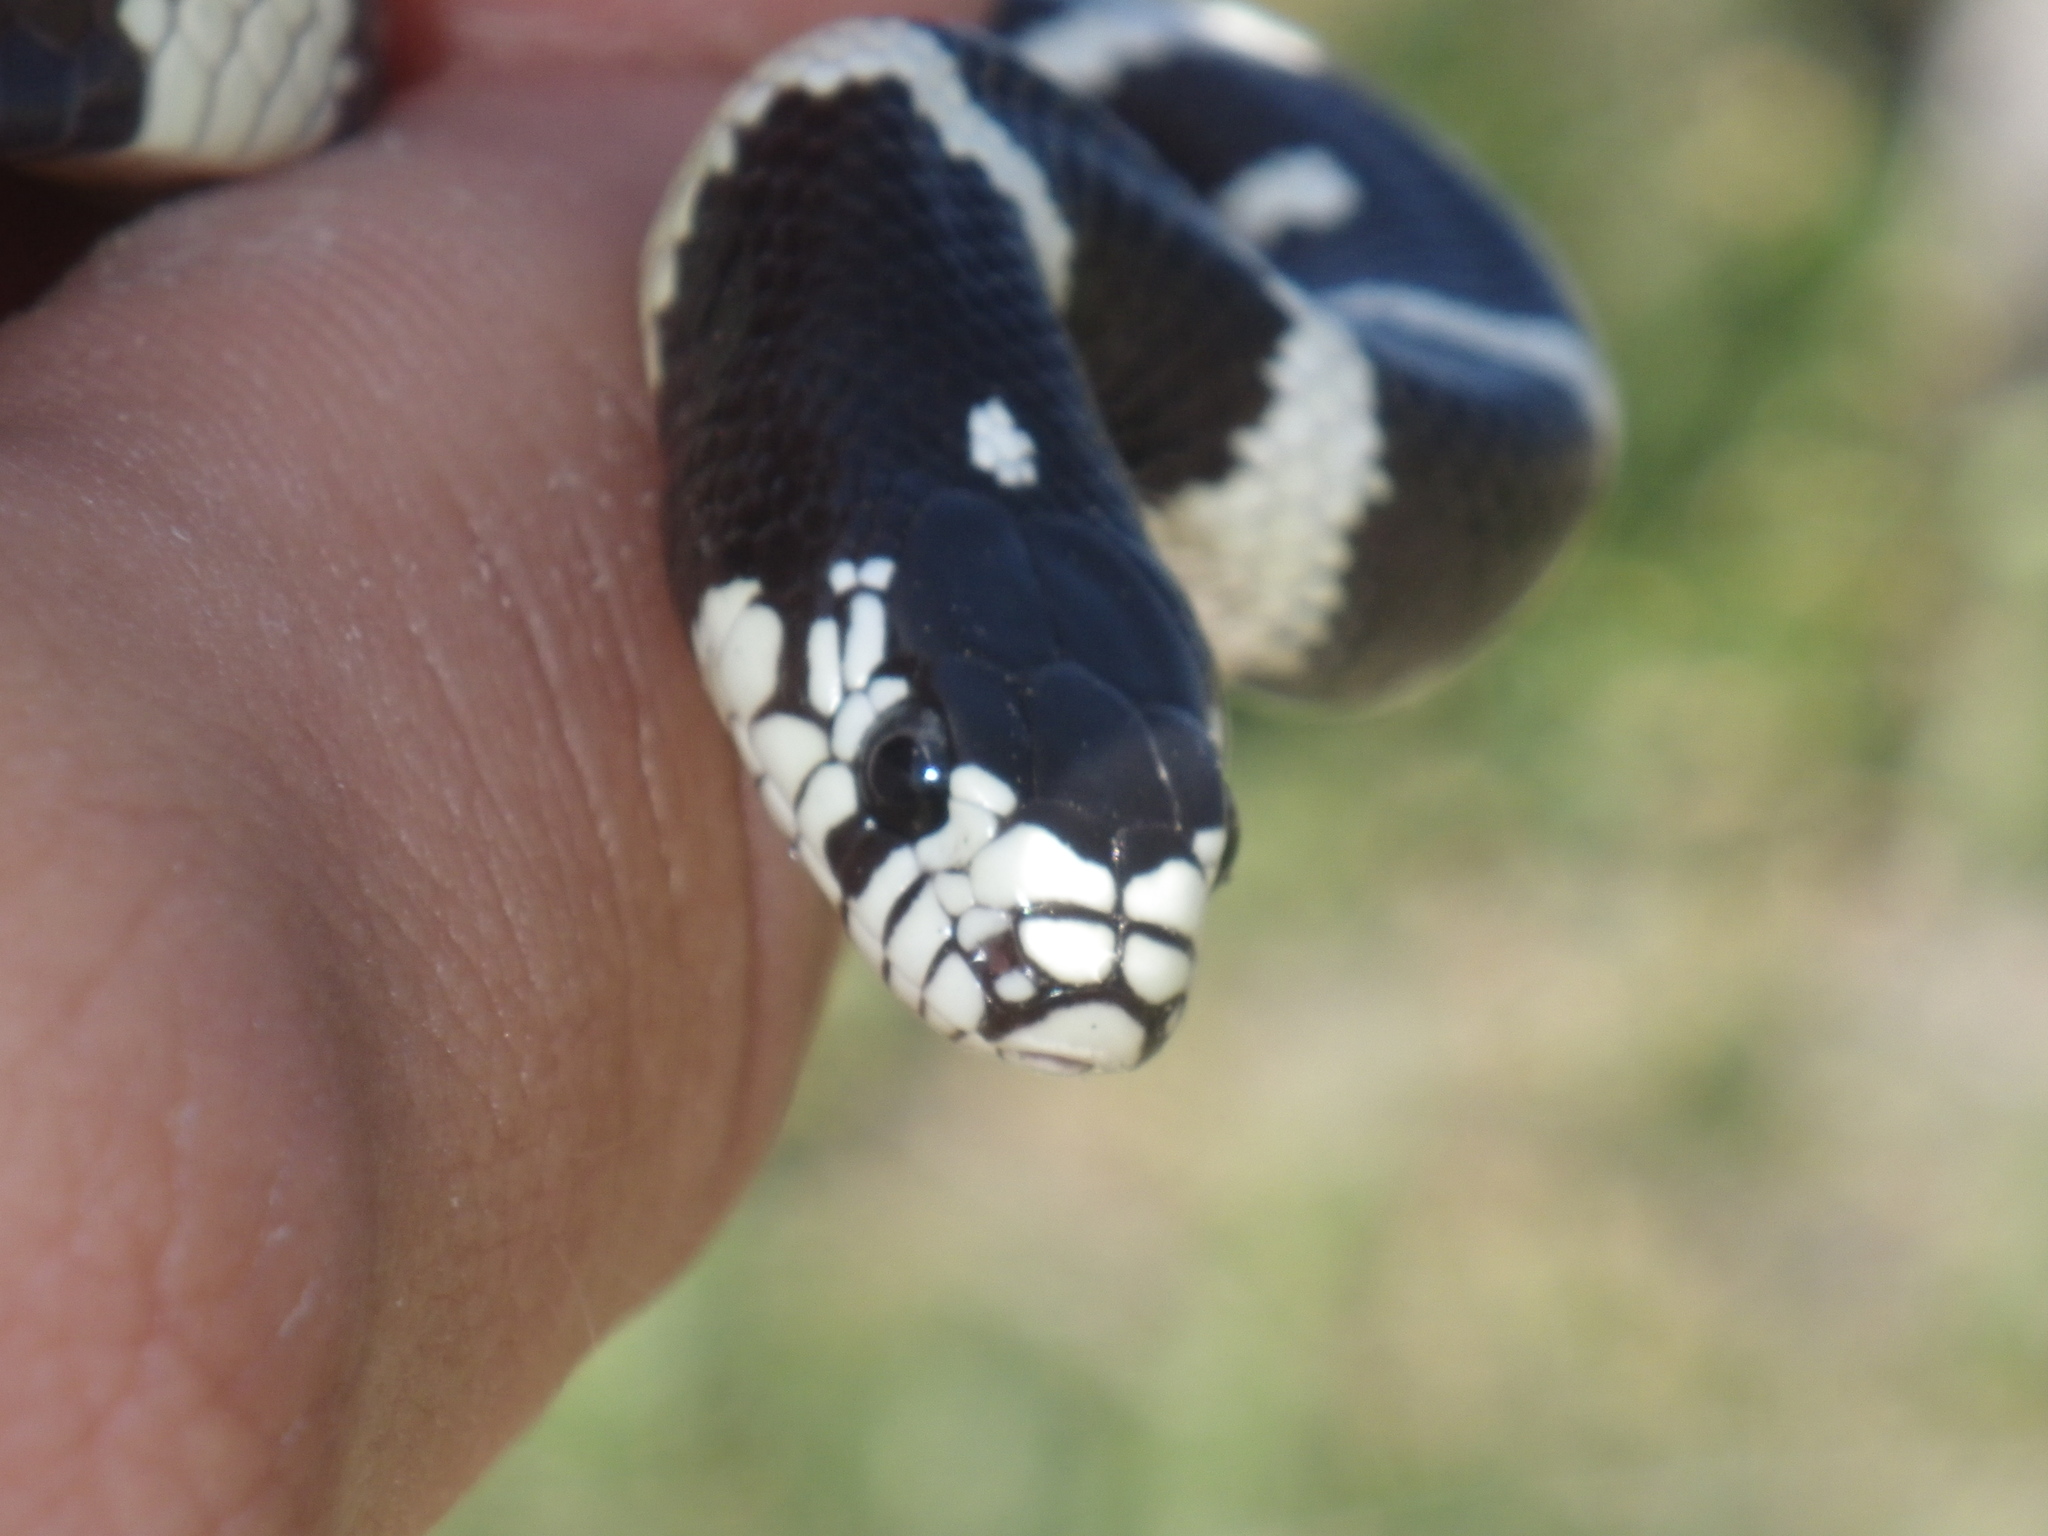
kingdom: Animalia
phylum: Chordata
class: Squamata
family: Colubridae
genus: Lampropeltis
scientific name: Lampropeltis californiae
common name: California kingsnake
